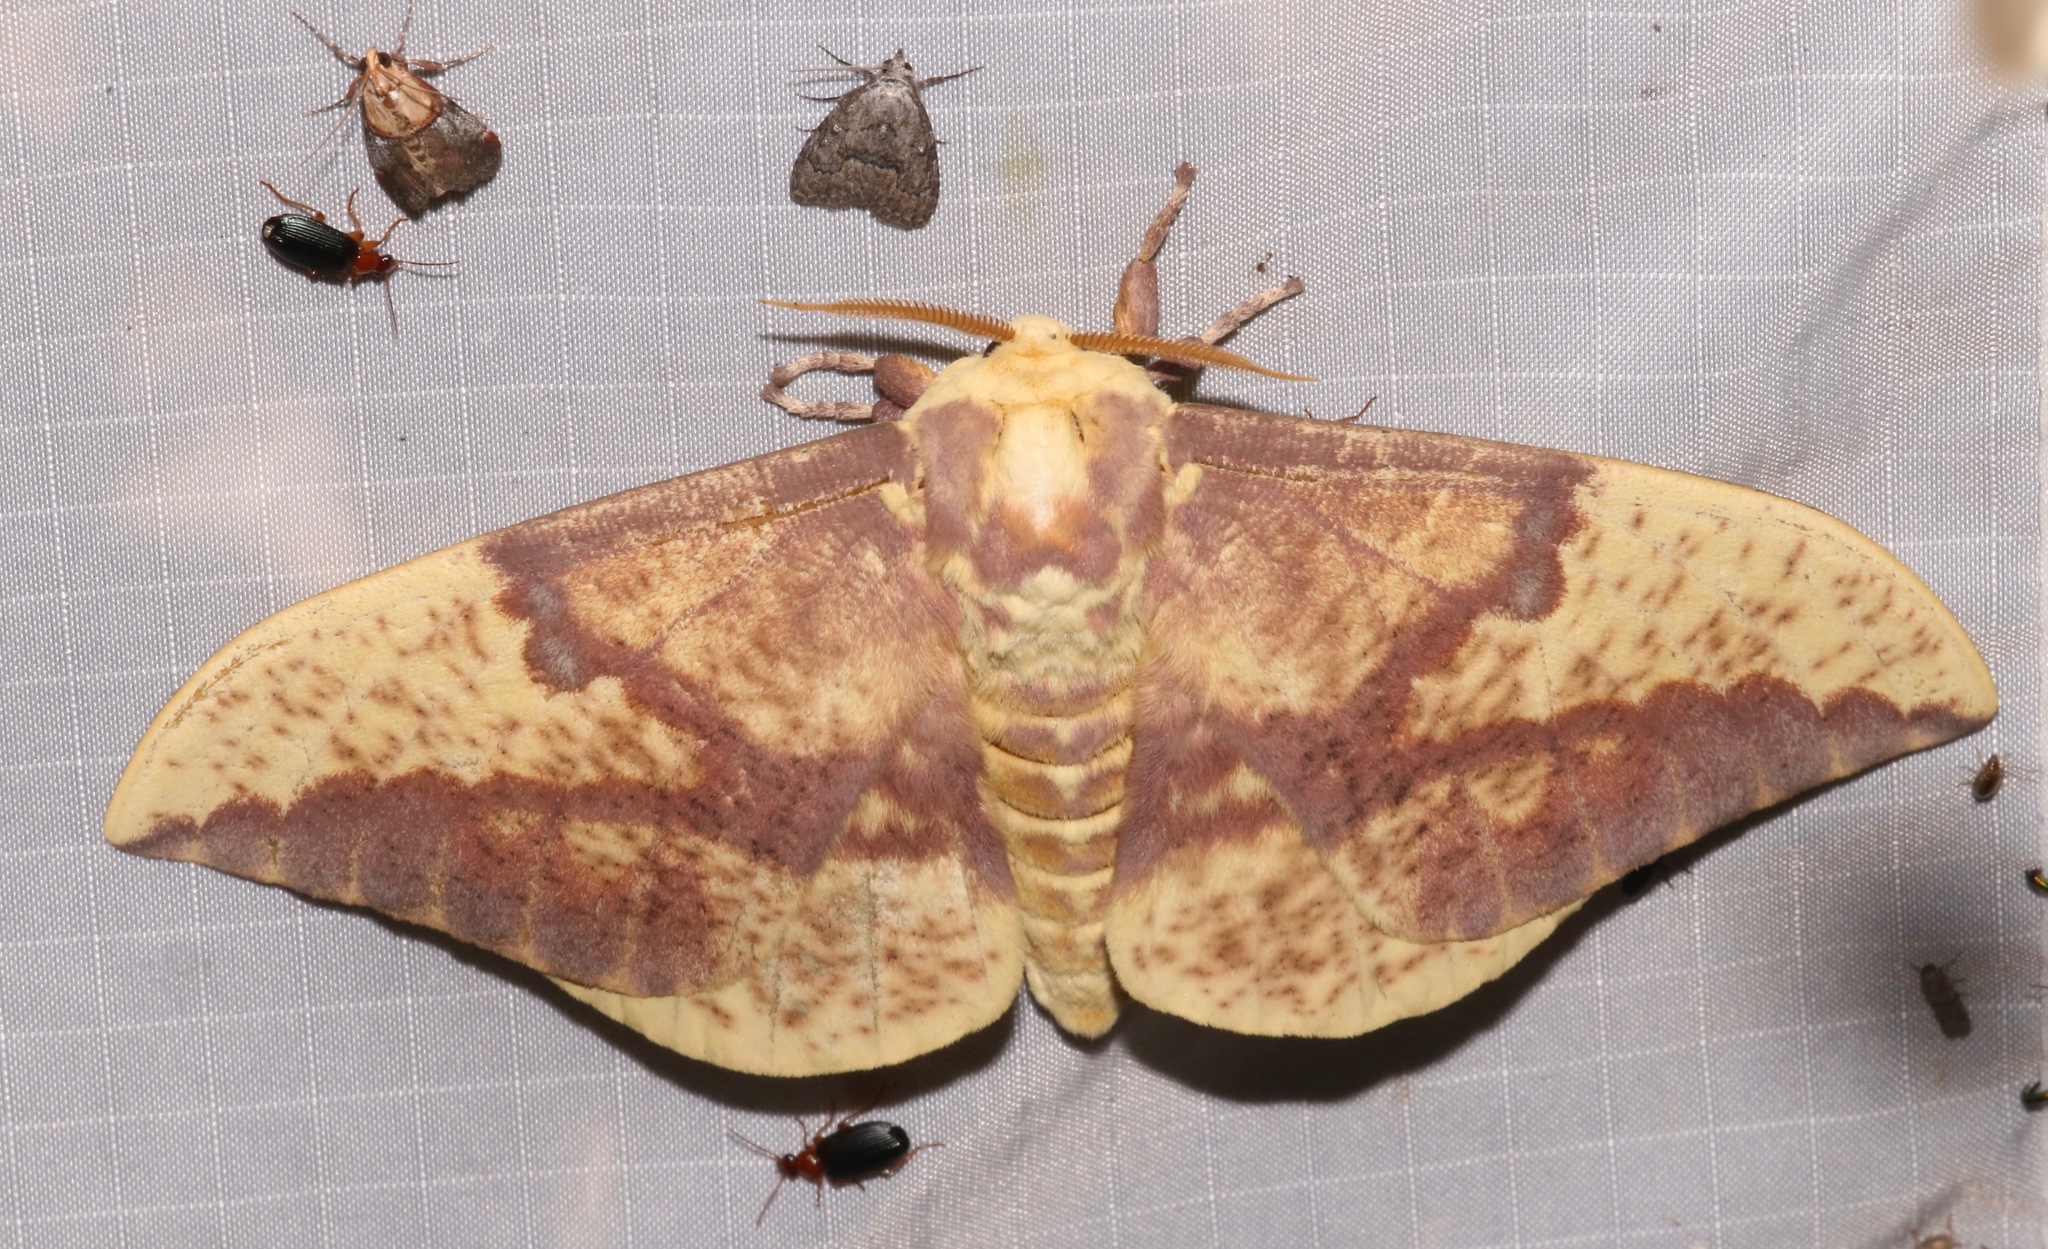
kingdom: Animalia
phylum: Arthropoda
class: Insecta
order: Lepidoptera
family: Saturniidae
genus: Eacles
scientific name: Eacles oslari
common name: Oslar's imperial moth
